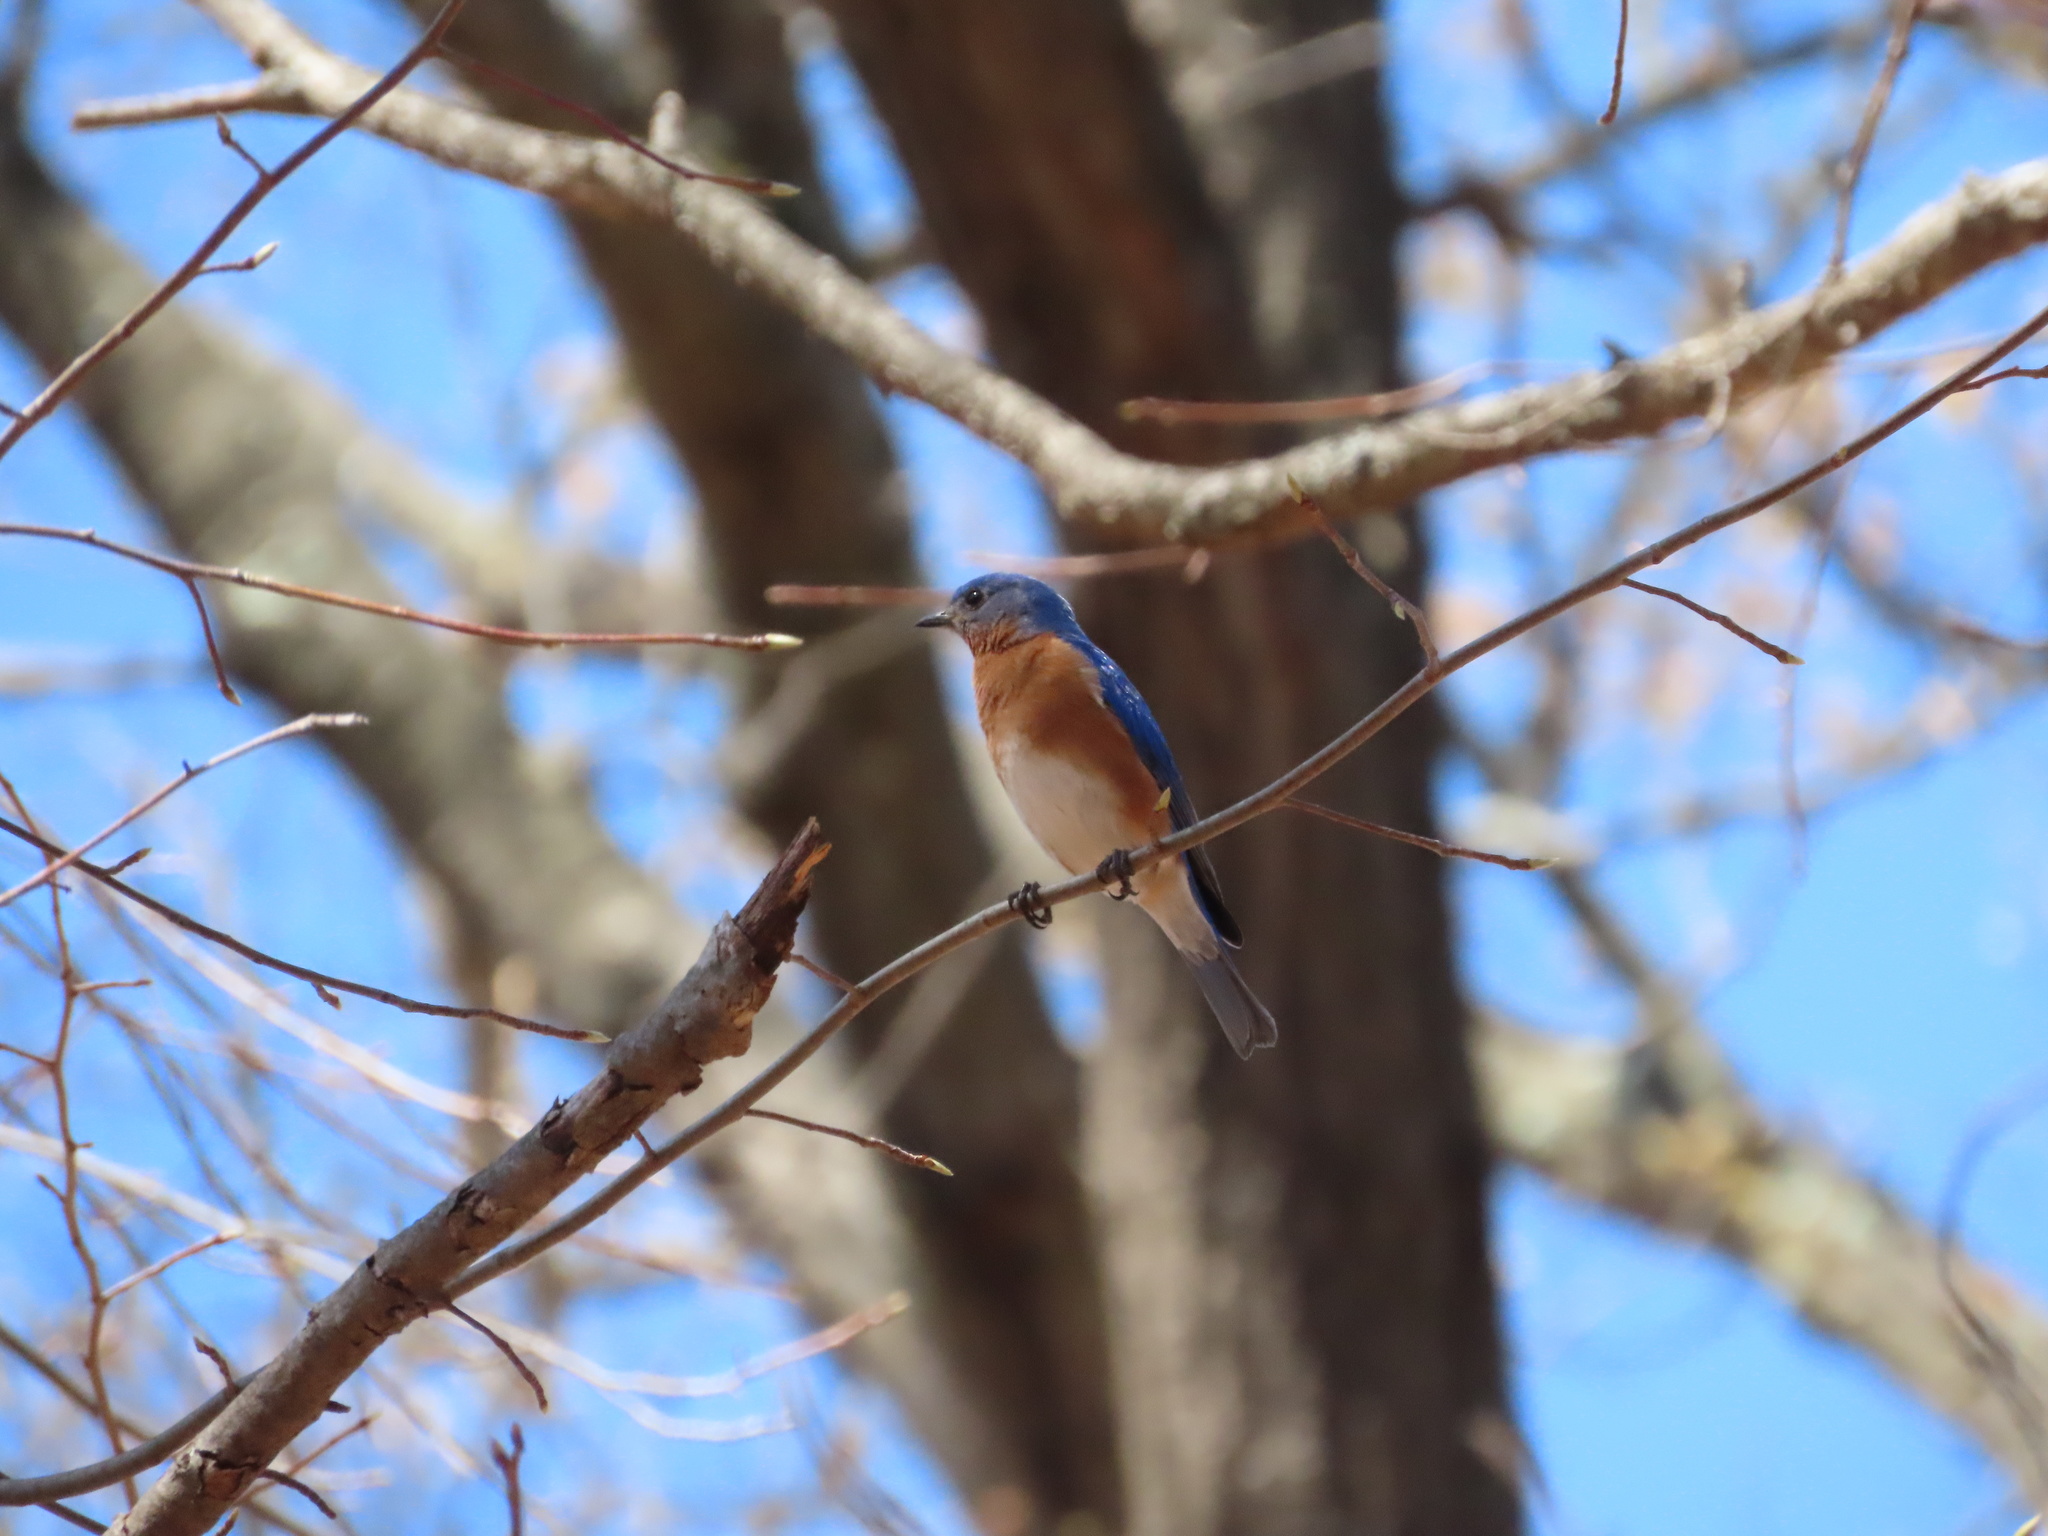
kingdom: Animalia
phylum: Chordata
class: Aves
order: Passeriformes
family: Turdidae
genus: Sialia
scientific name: Sialia sialis
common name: Eastern bluebird
